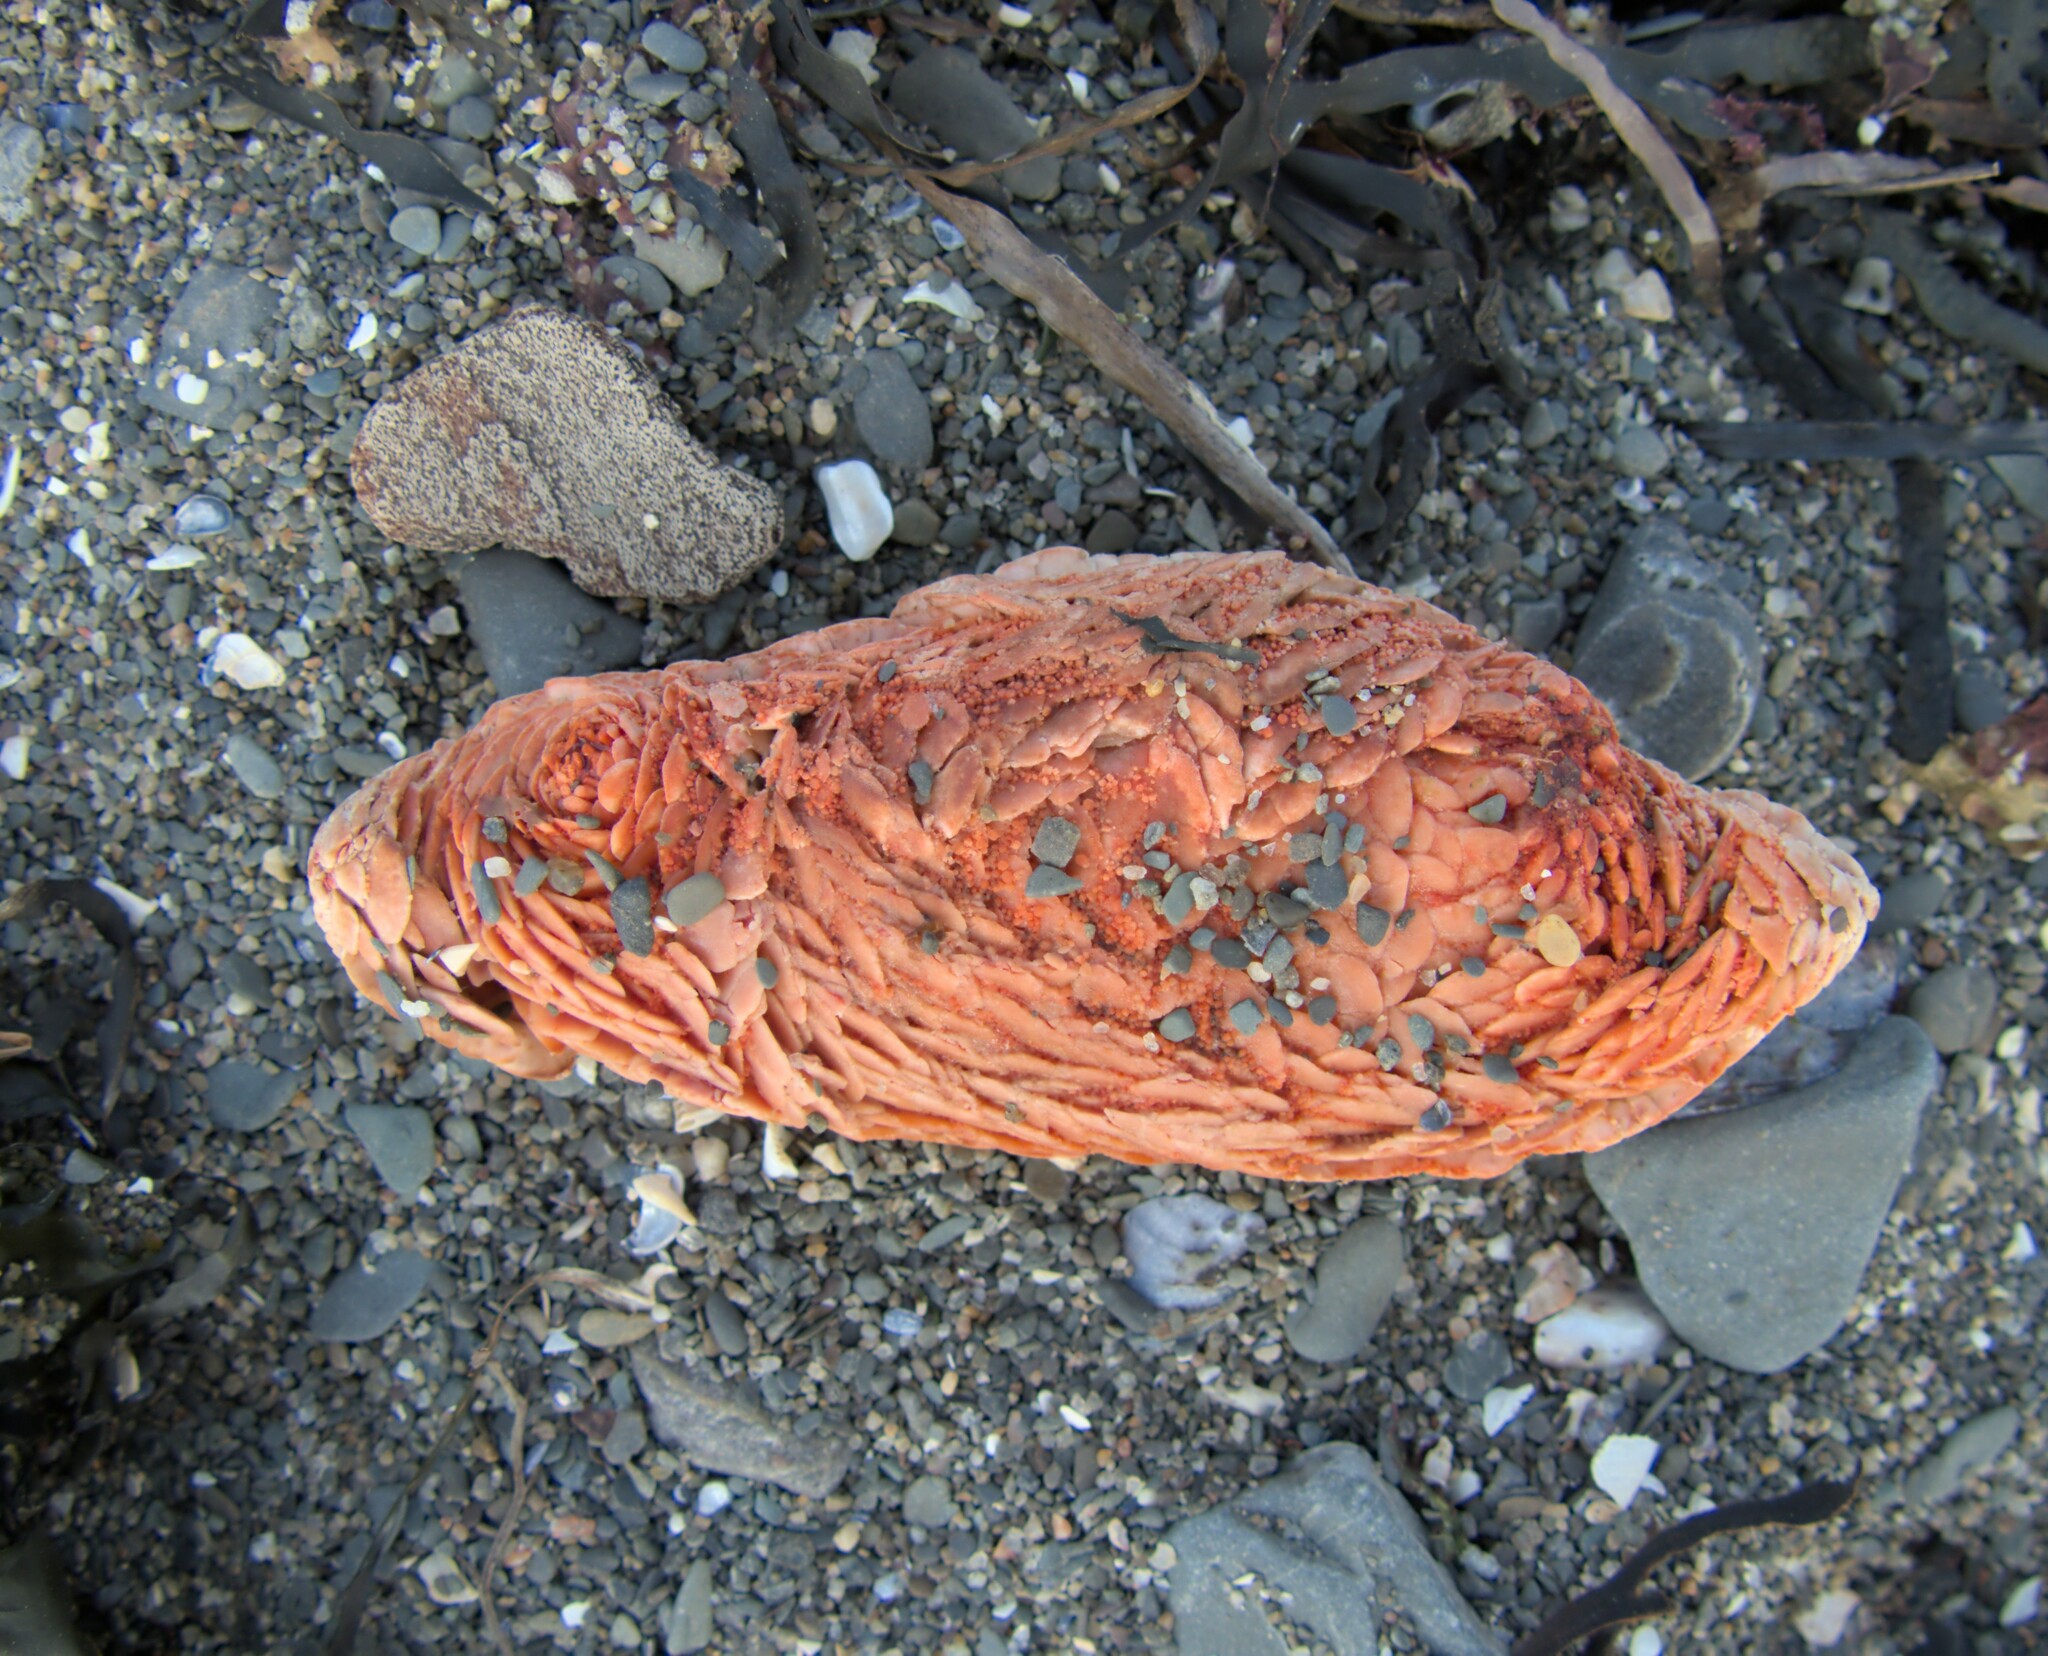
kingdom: Animalia
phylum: Echinodermata
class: Holothuroidea
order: Dendrochirotida
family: Psolidae
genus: Psolus
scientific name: Psolus fabricii
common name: Scarlet psolus
